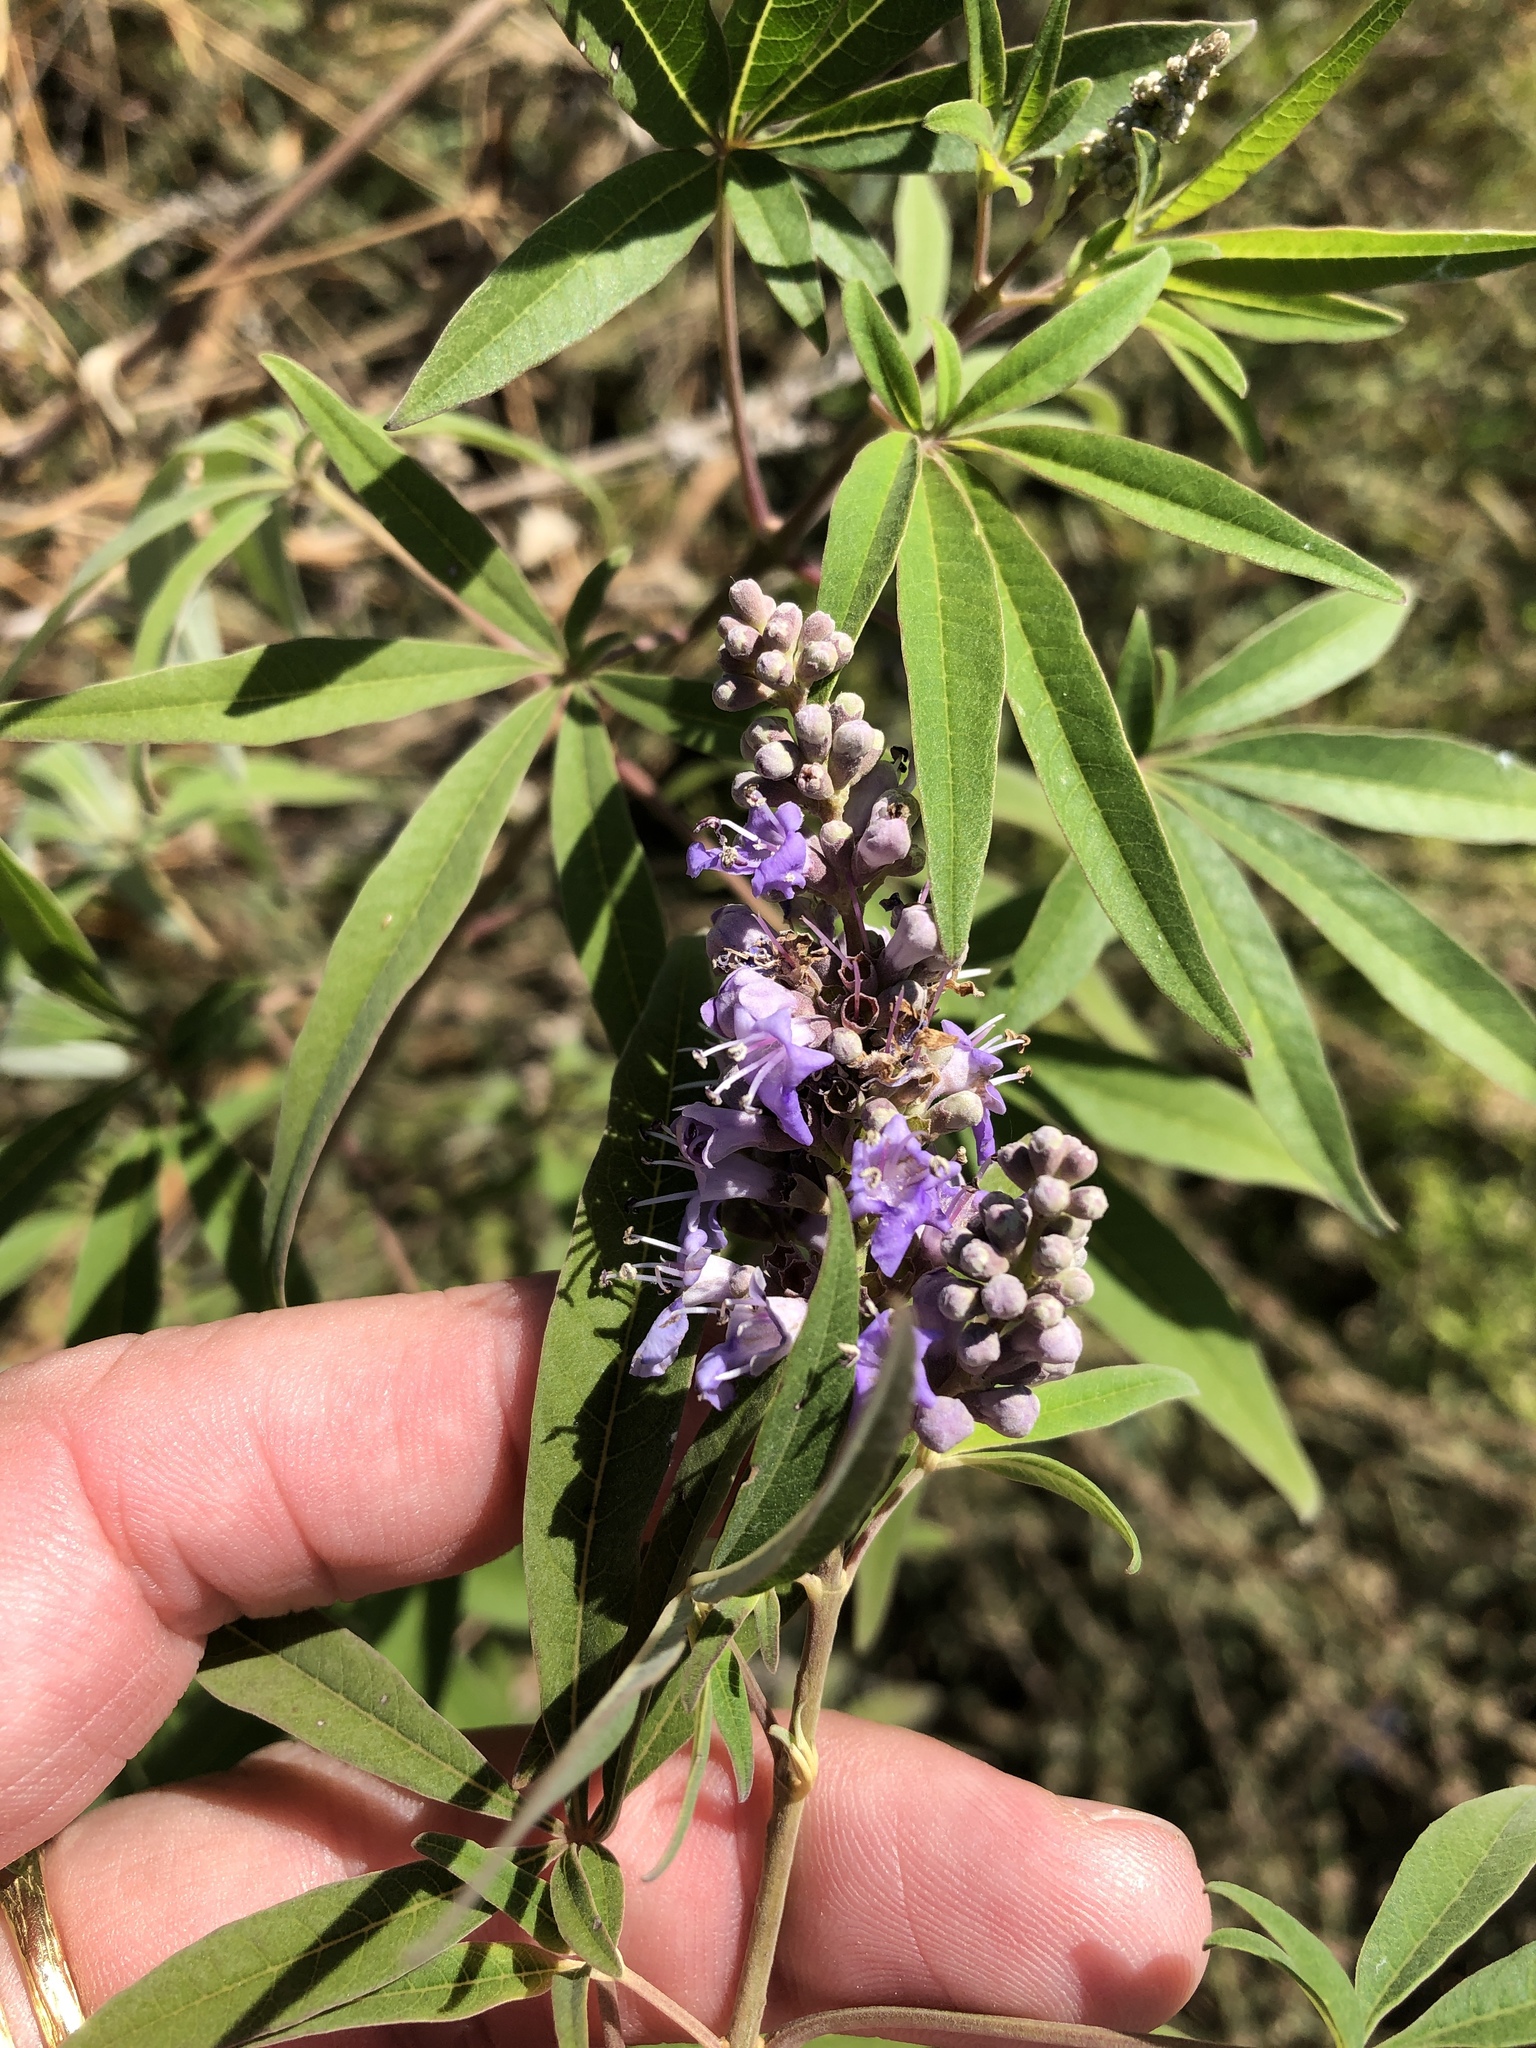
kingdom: Plantae
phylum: Tracheophyta
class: Magnoliopsida
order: Lamiales
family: Lamiaceae
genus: Vitex
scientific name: Vitex agnus-castus
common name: Chasteberry
